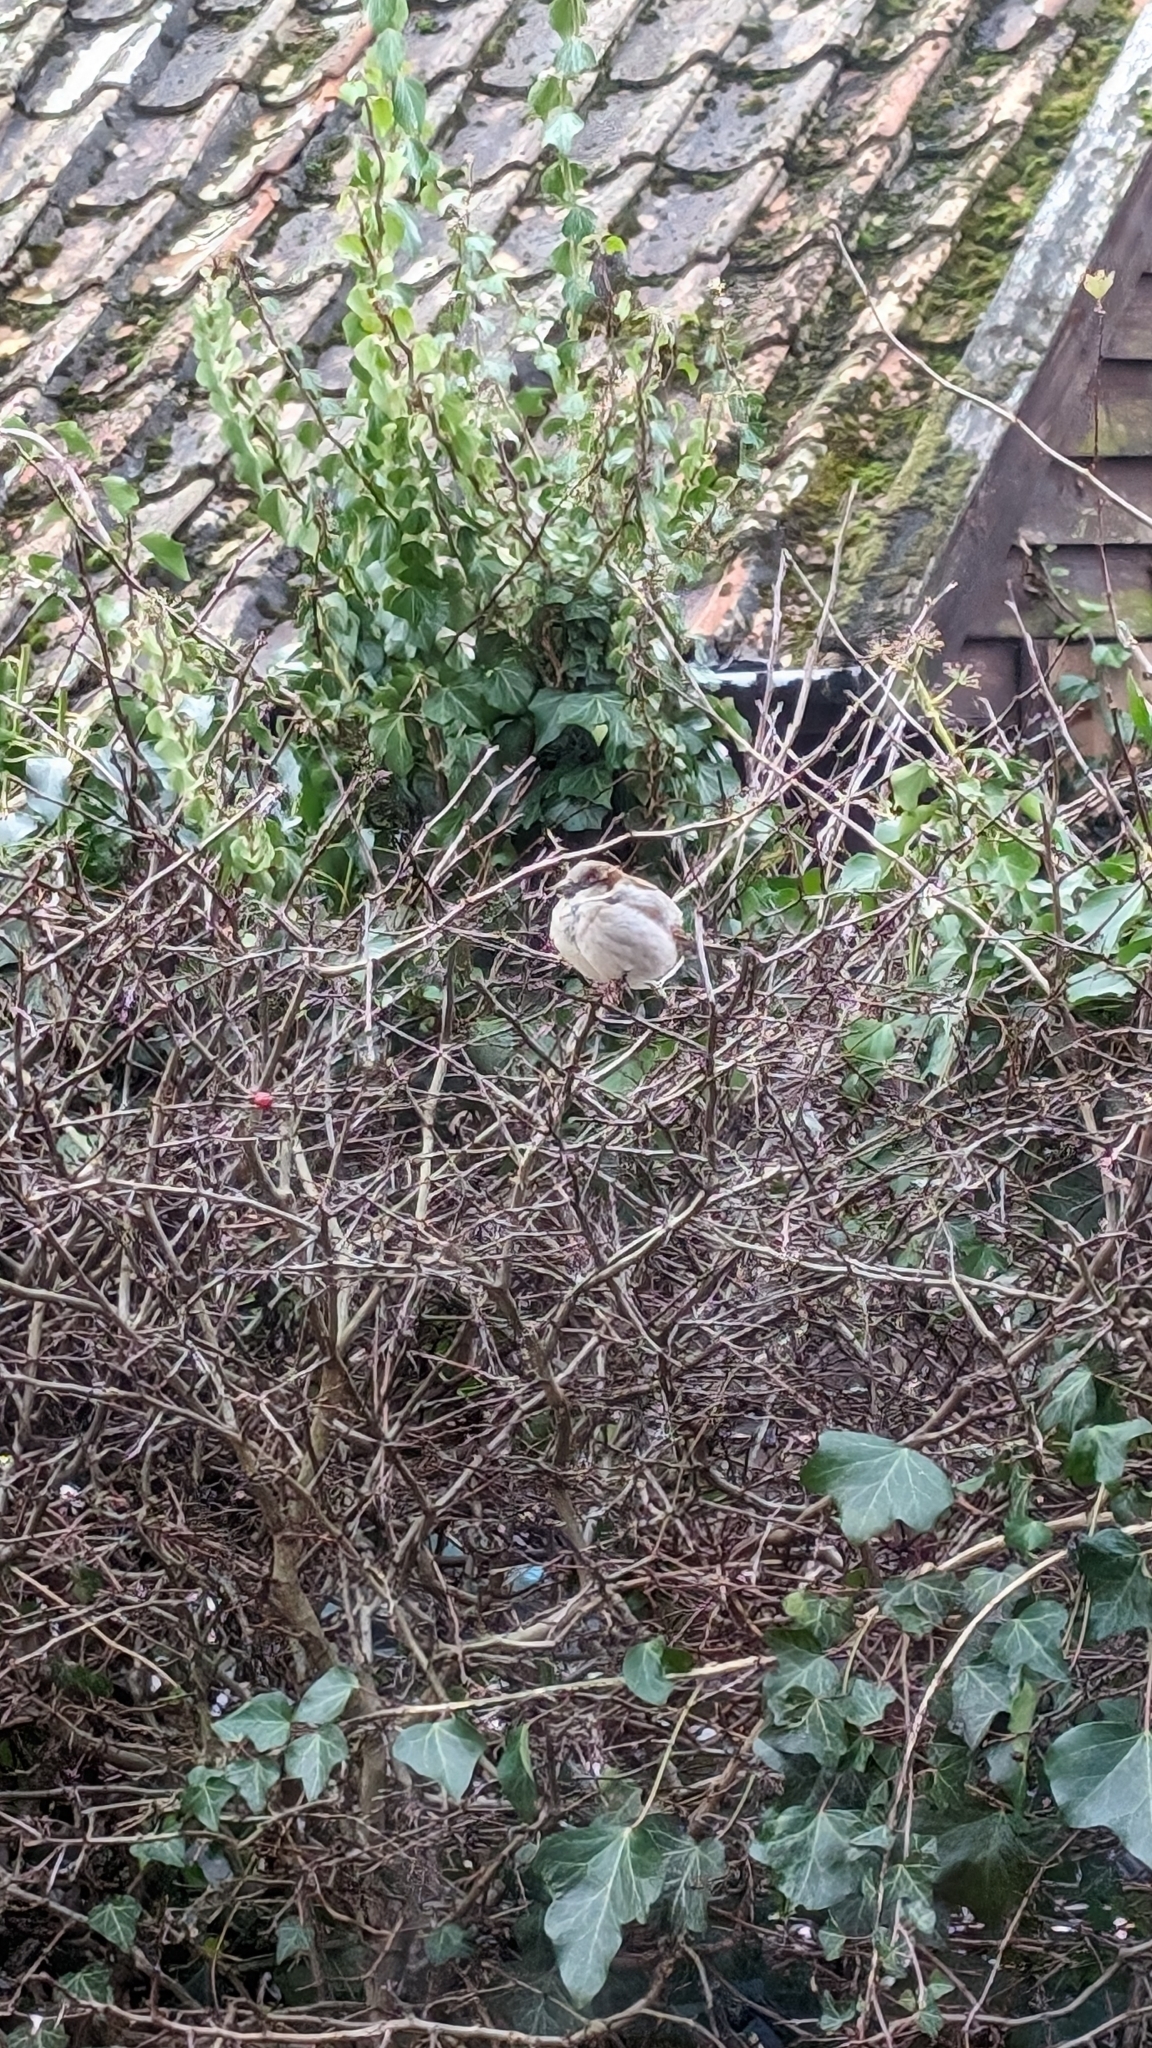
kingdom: Animalia
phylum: Chordata
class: Aves
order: Passeriformes
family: Passeridae
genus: Passer
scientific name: Passer domesticus
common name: House sparrow
